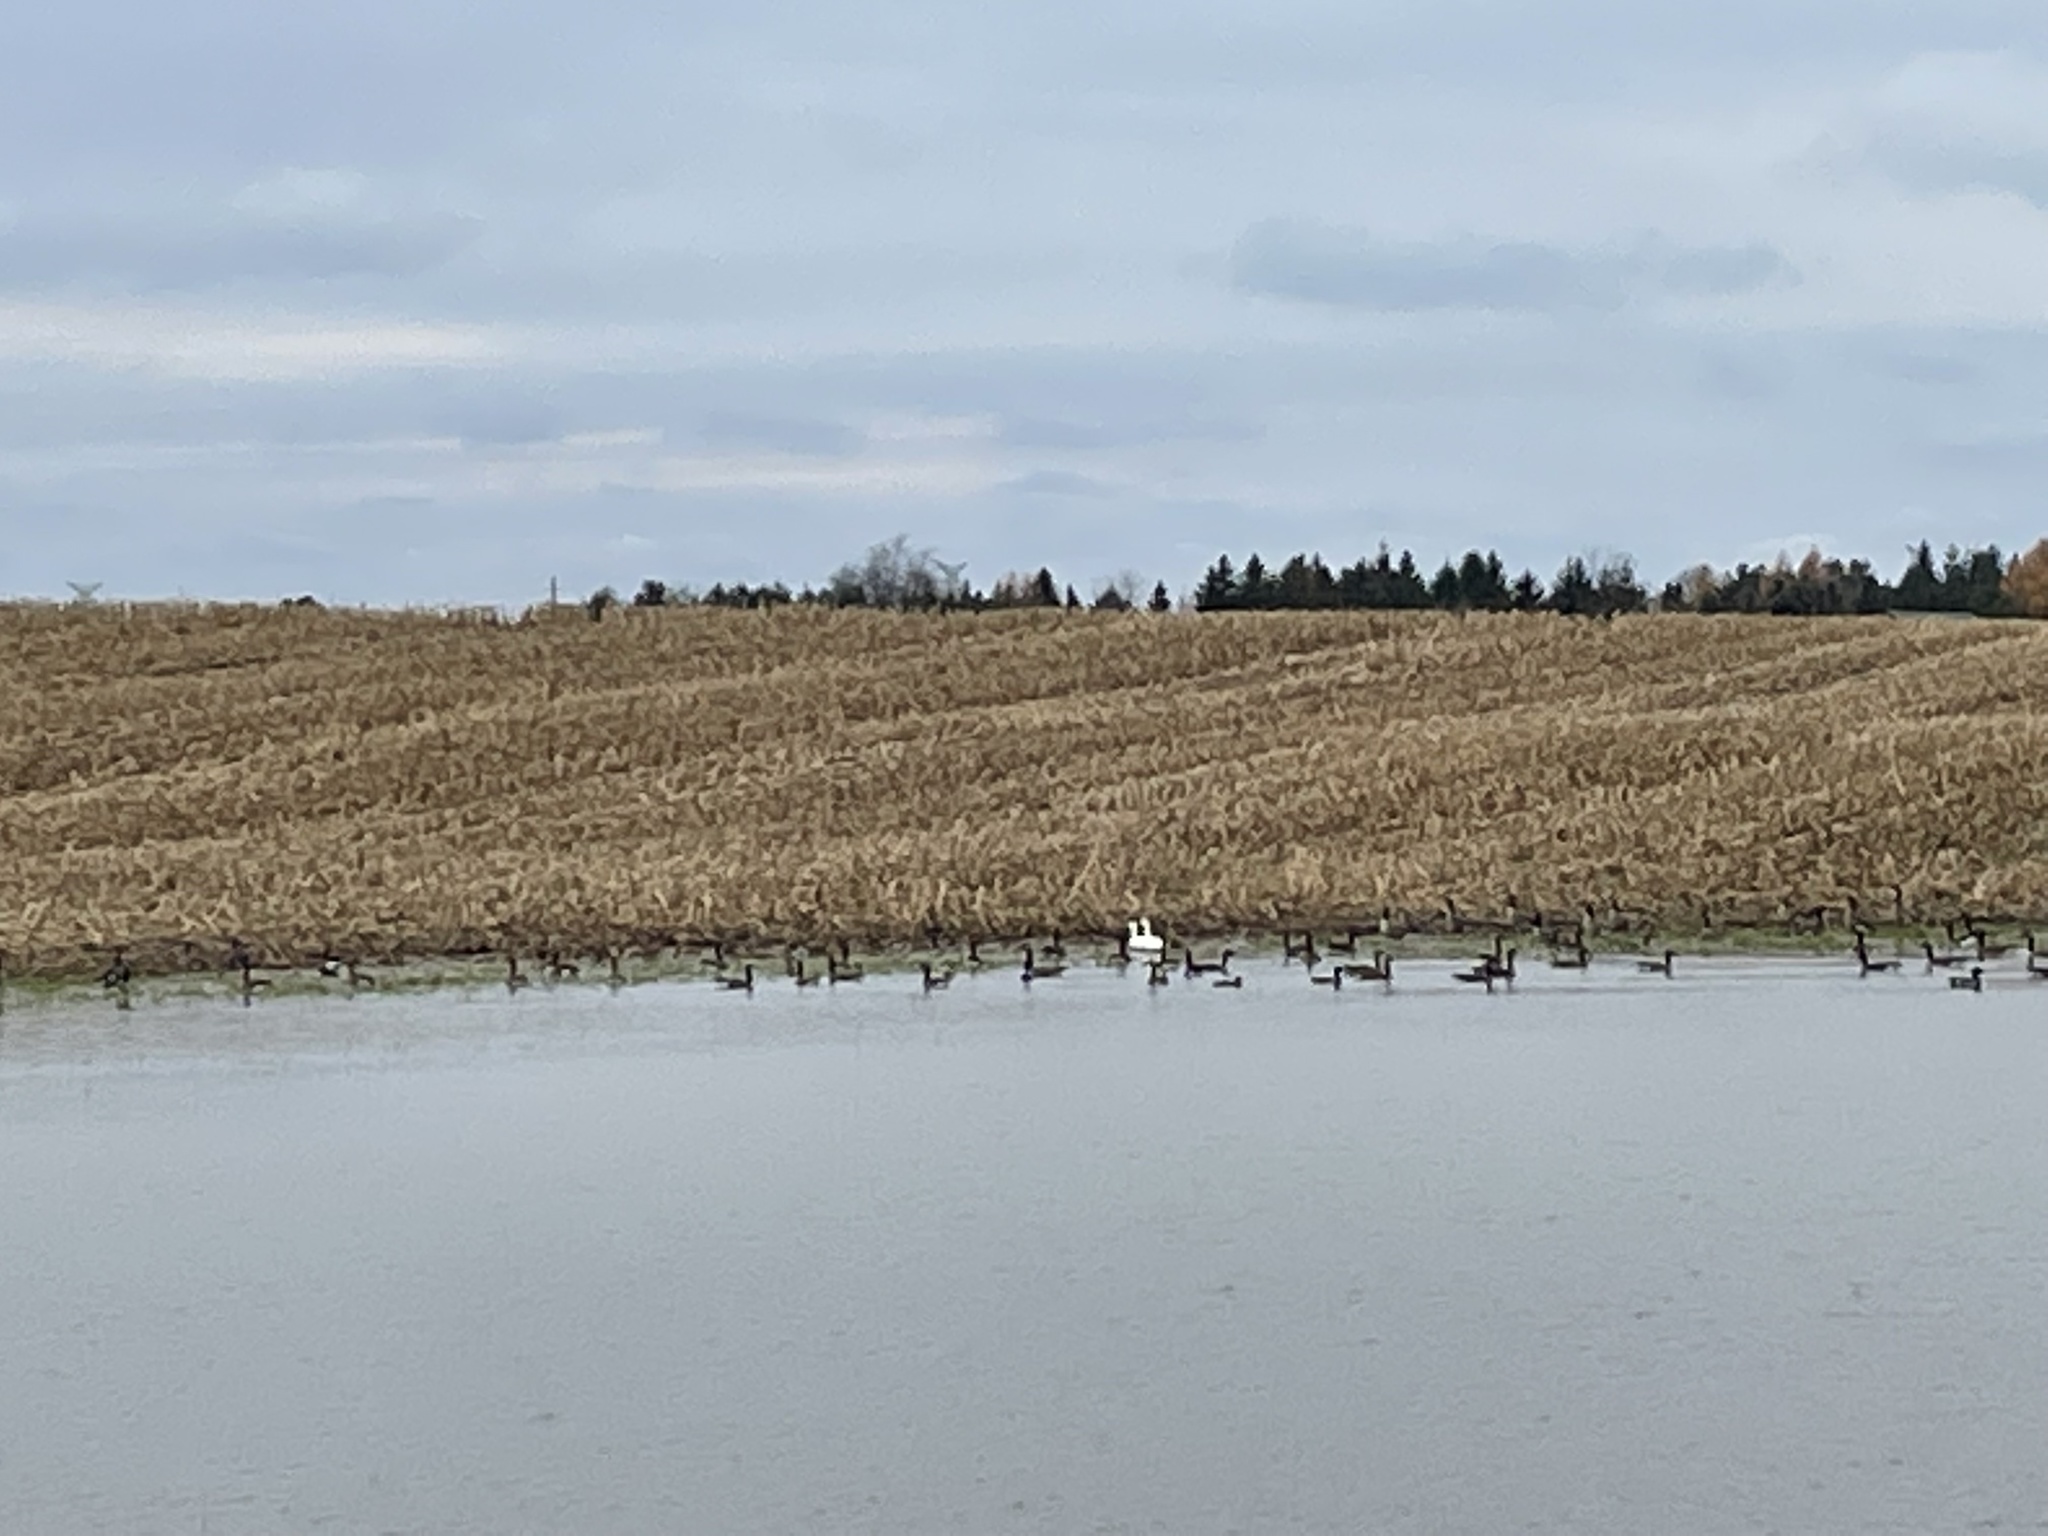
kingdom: Animalia
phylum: Chordata
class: Aves
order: Anseriformes
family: Anatidae
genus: Anser
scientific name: Anser caerulescens
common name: Snow goose
